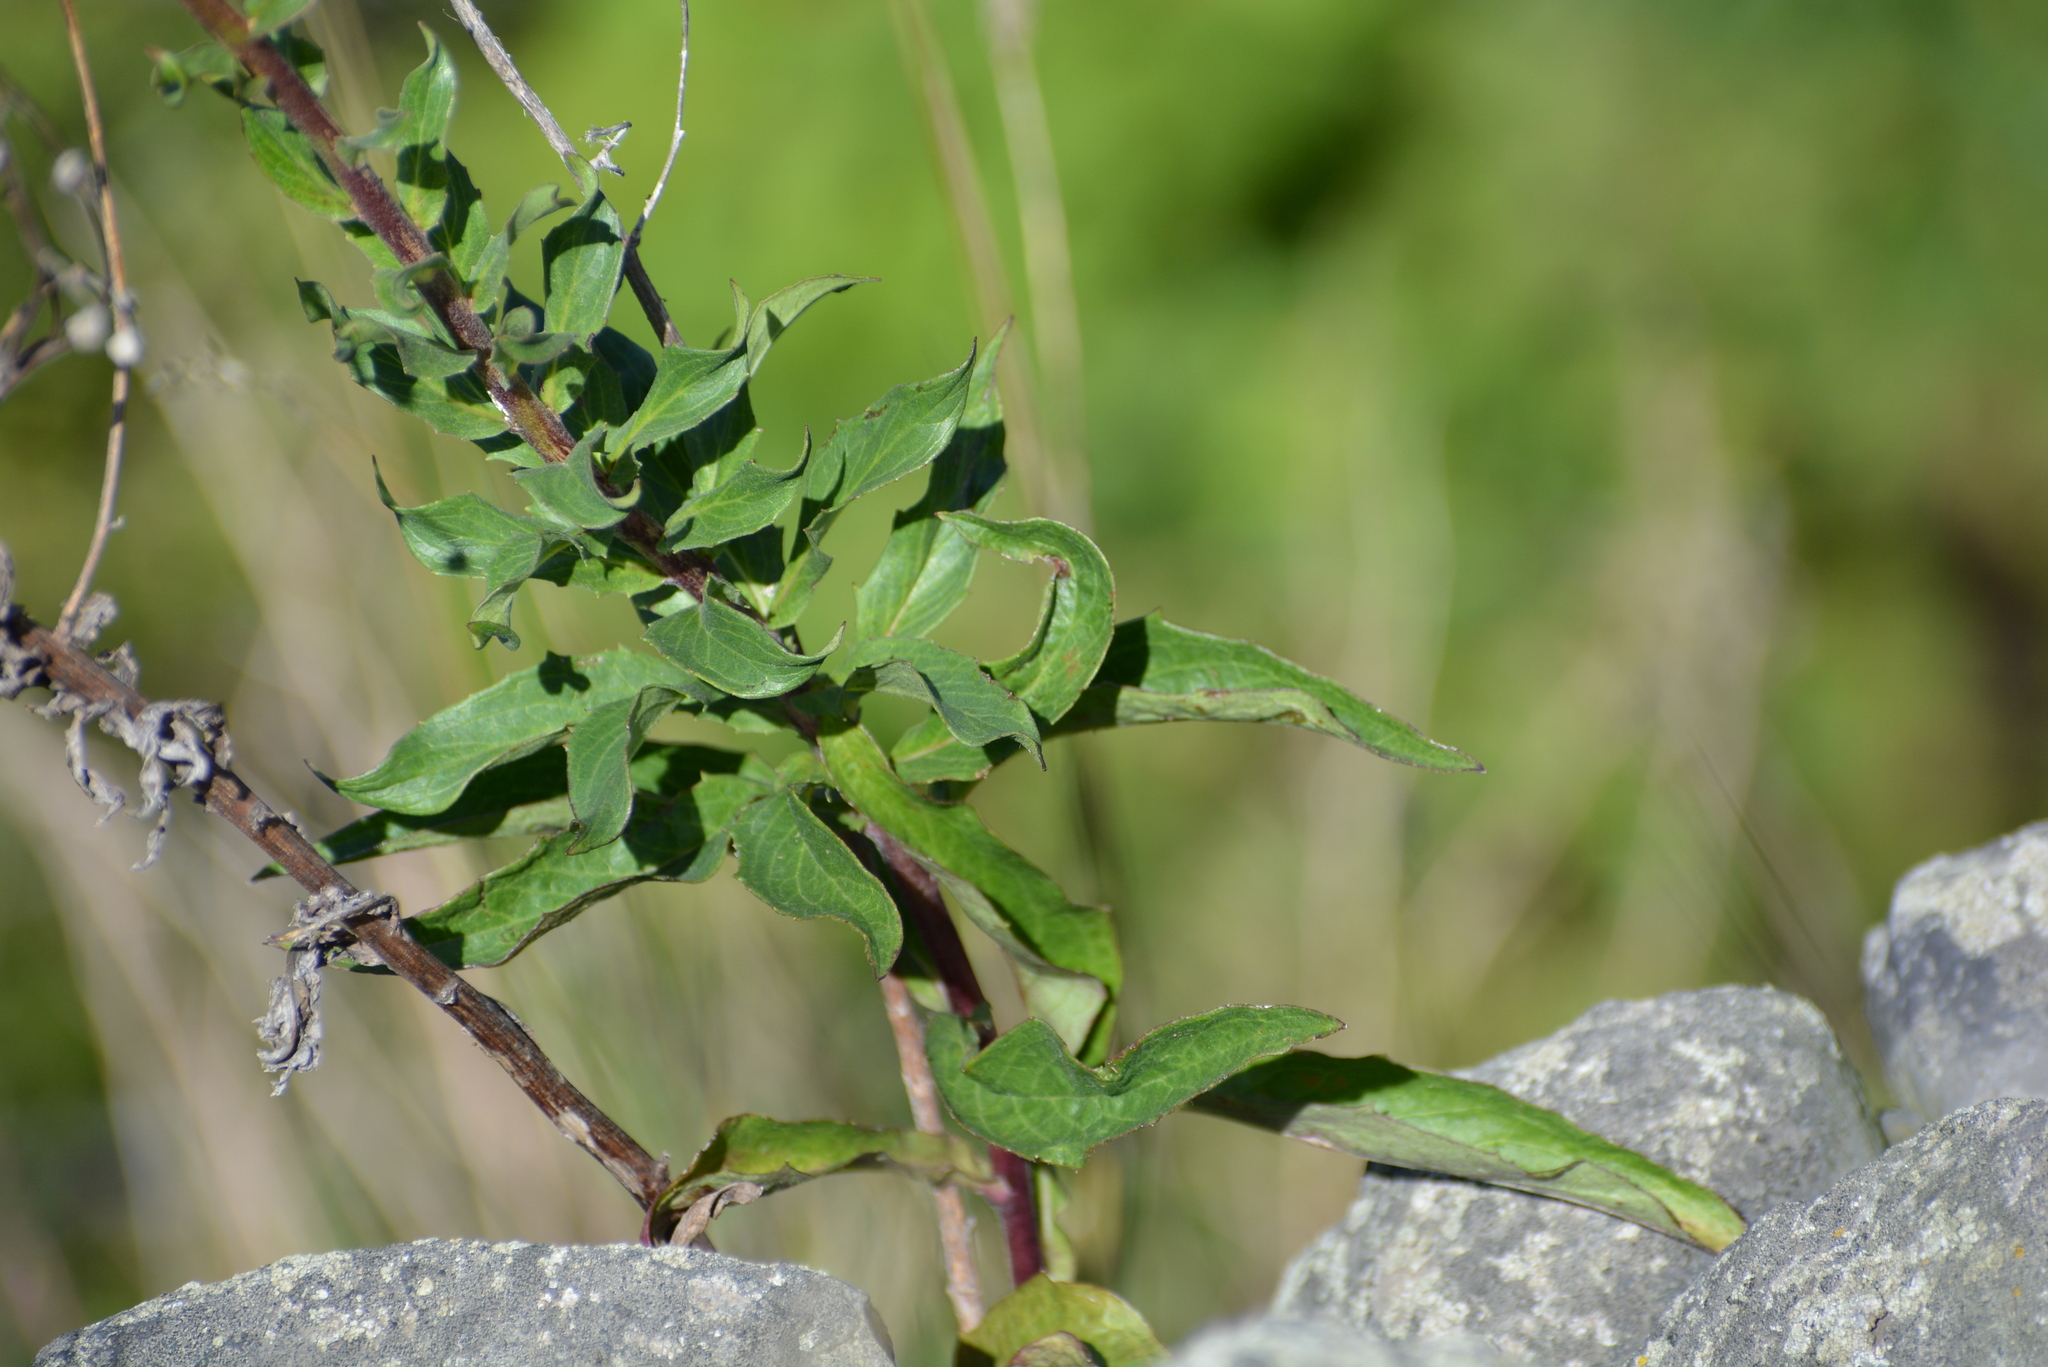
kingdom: Plantae
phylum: Tracheophyta
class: Magnoliopsida
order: Asterales
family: Asteraceae
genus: Hieracium
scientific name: Hieracium sabaudum
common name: New england hawkweed
